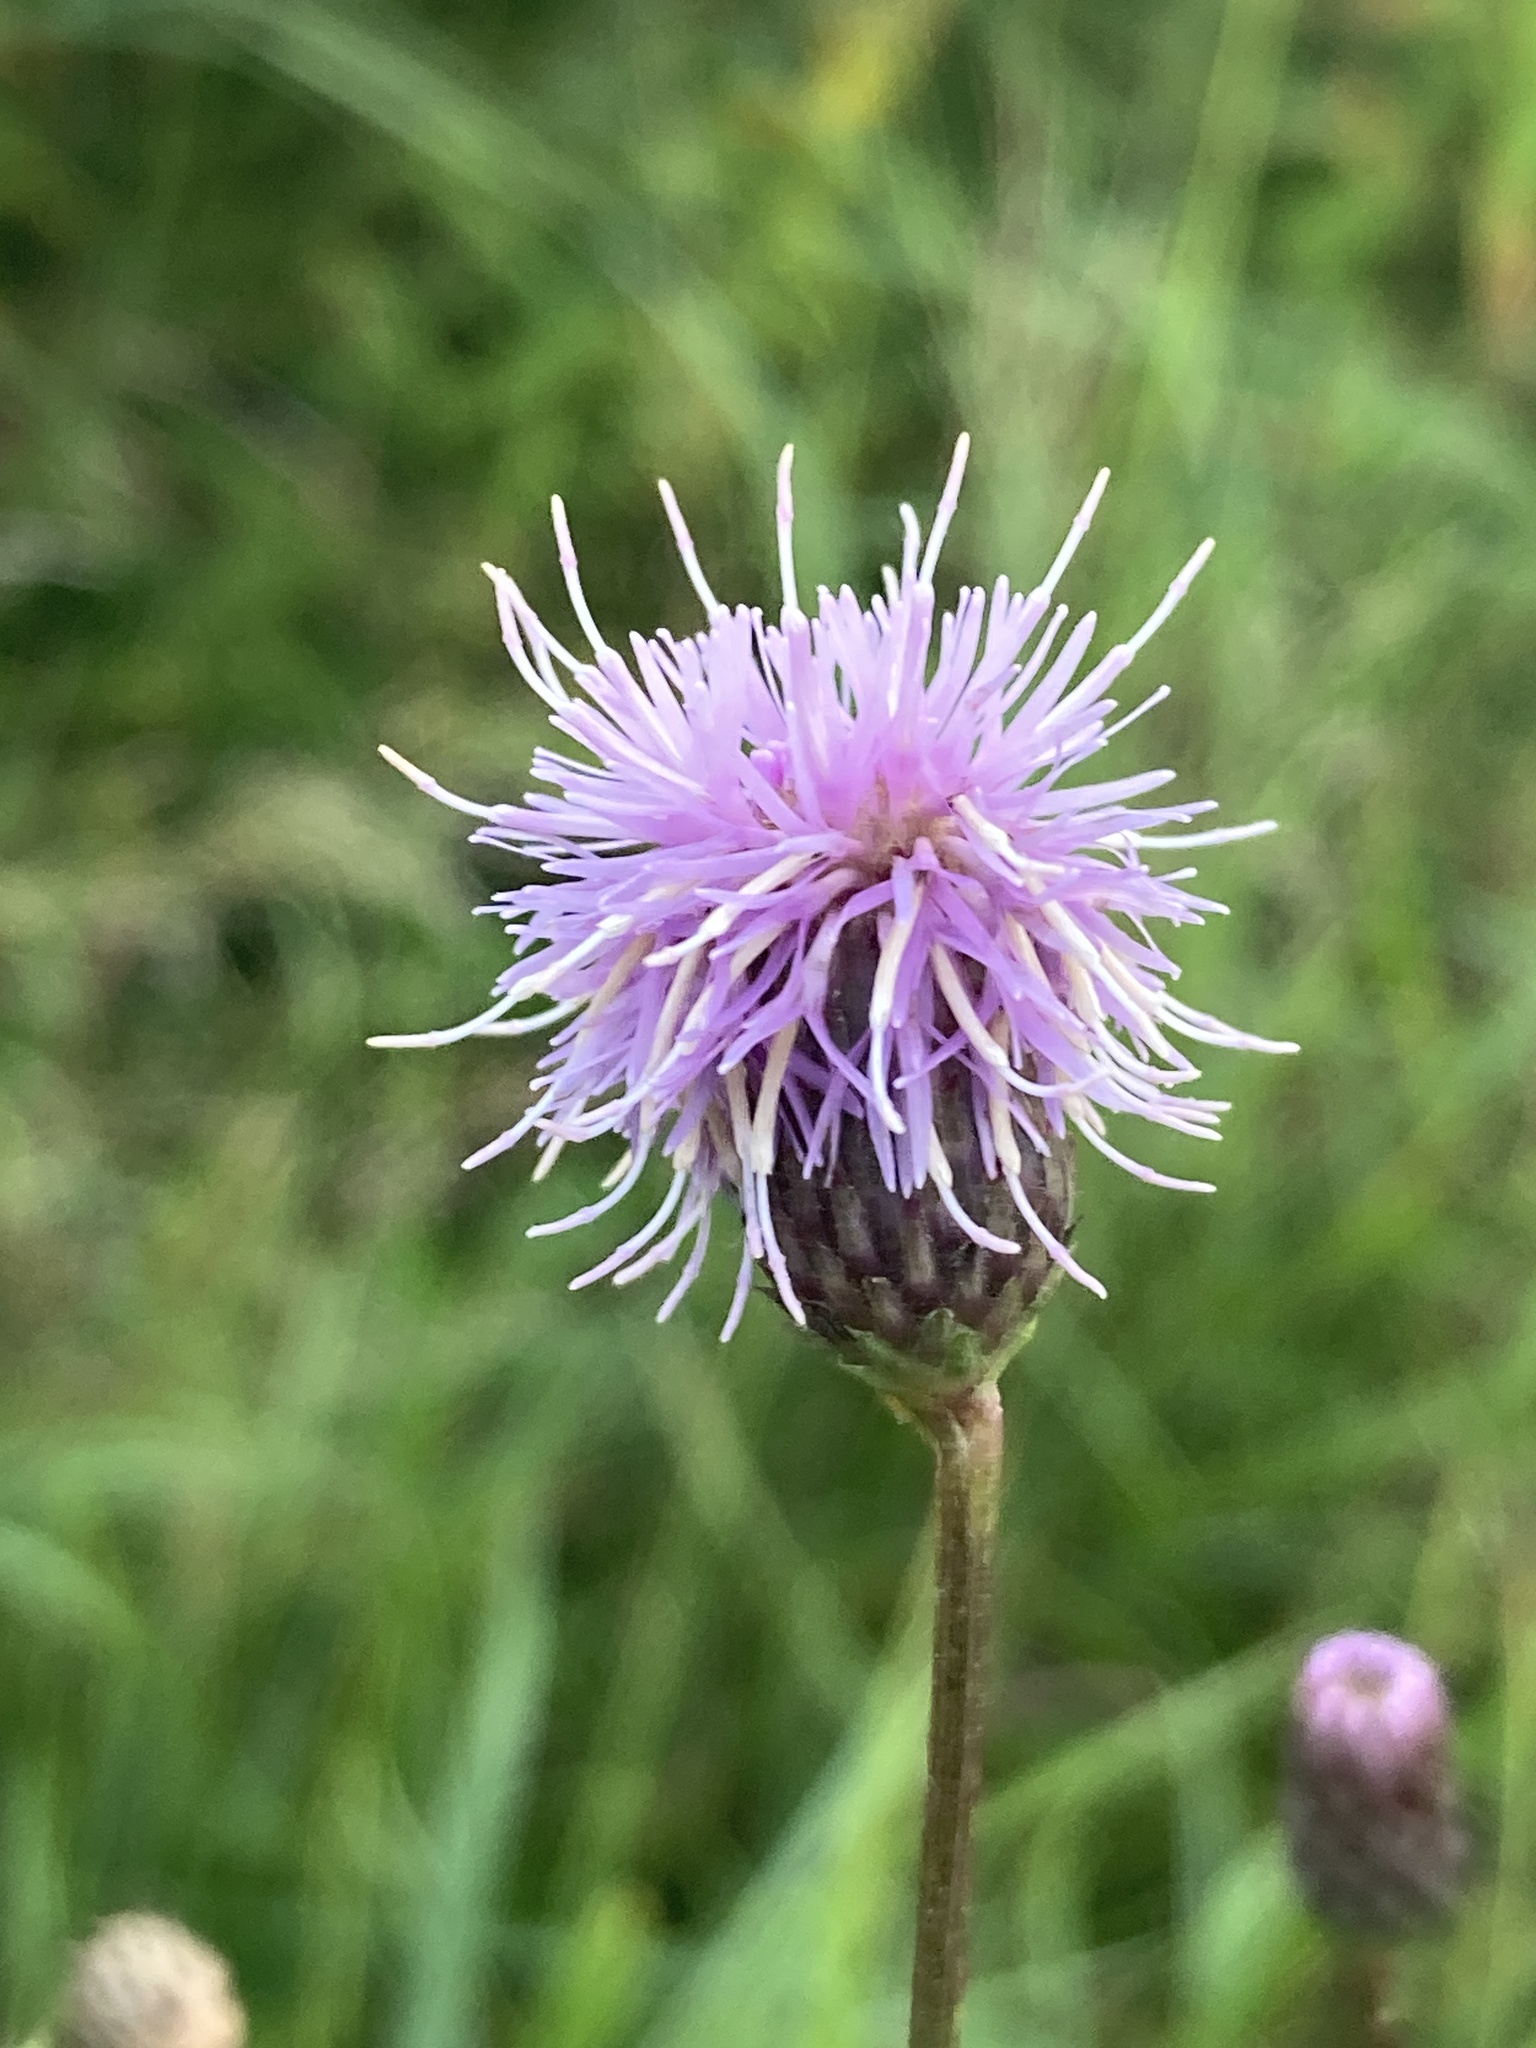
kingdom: Plantae
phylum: Tracheophyta
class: Magnoliopsida
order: Asterales
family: Asteraceae
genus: Cirsium
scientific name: Cirsium arvense
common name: Creeping thistle
